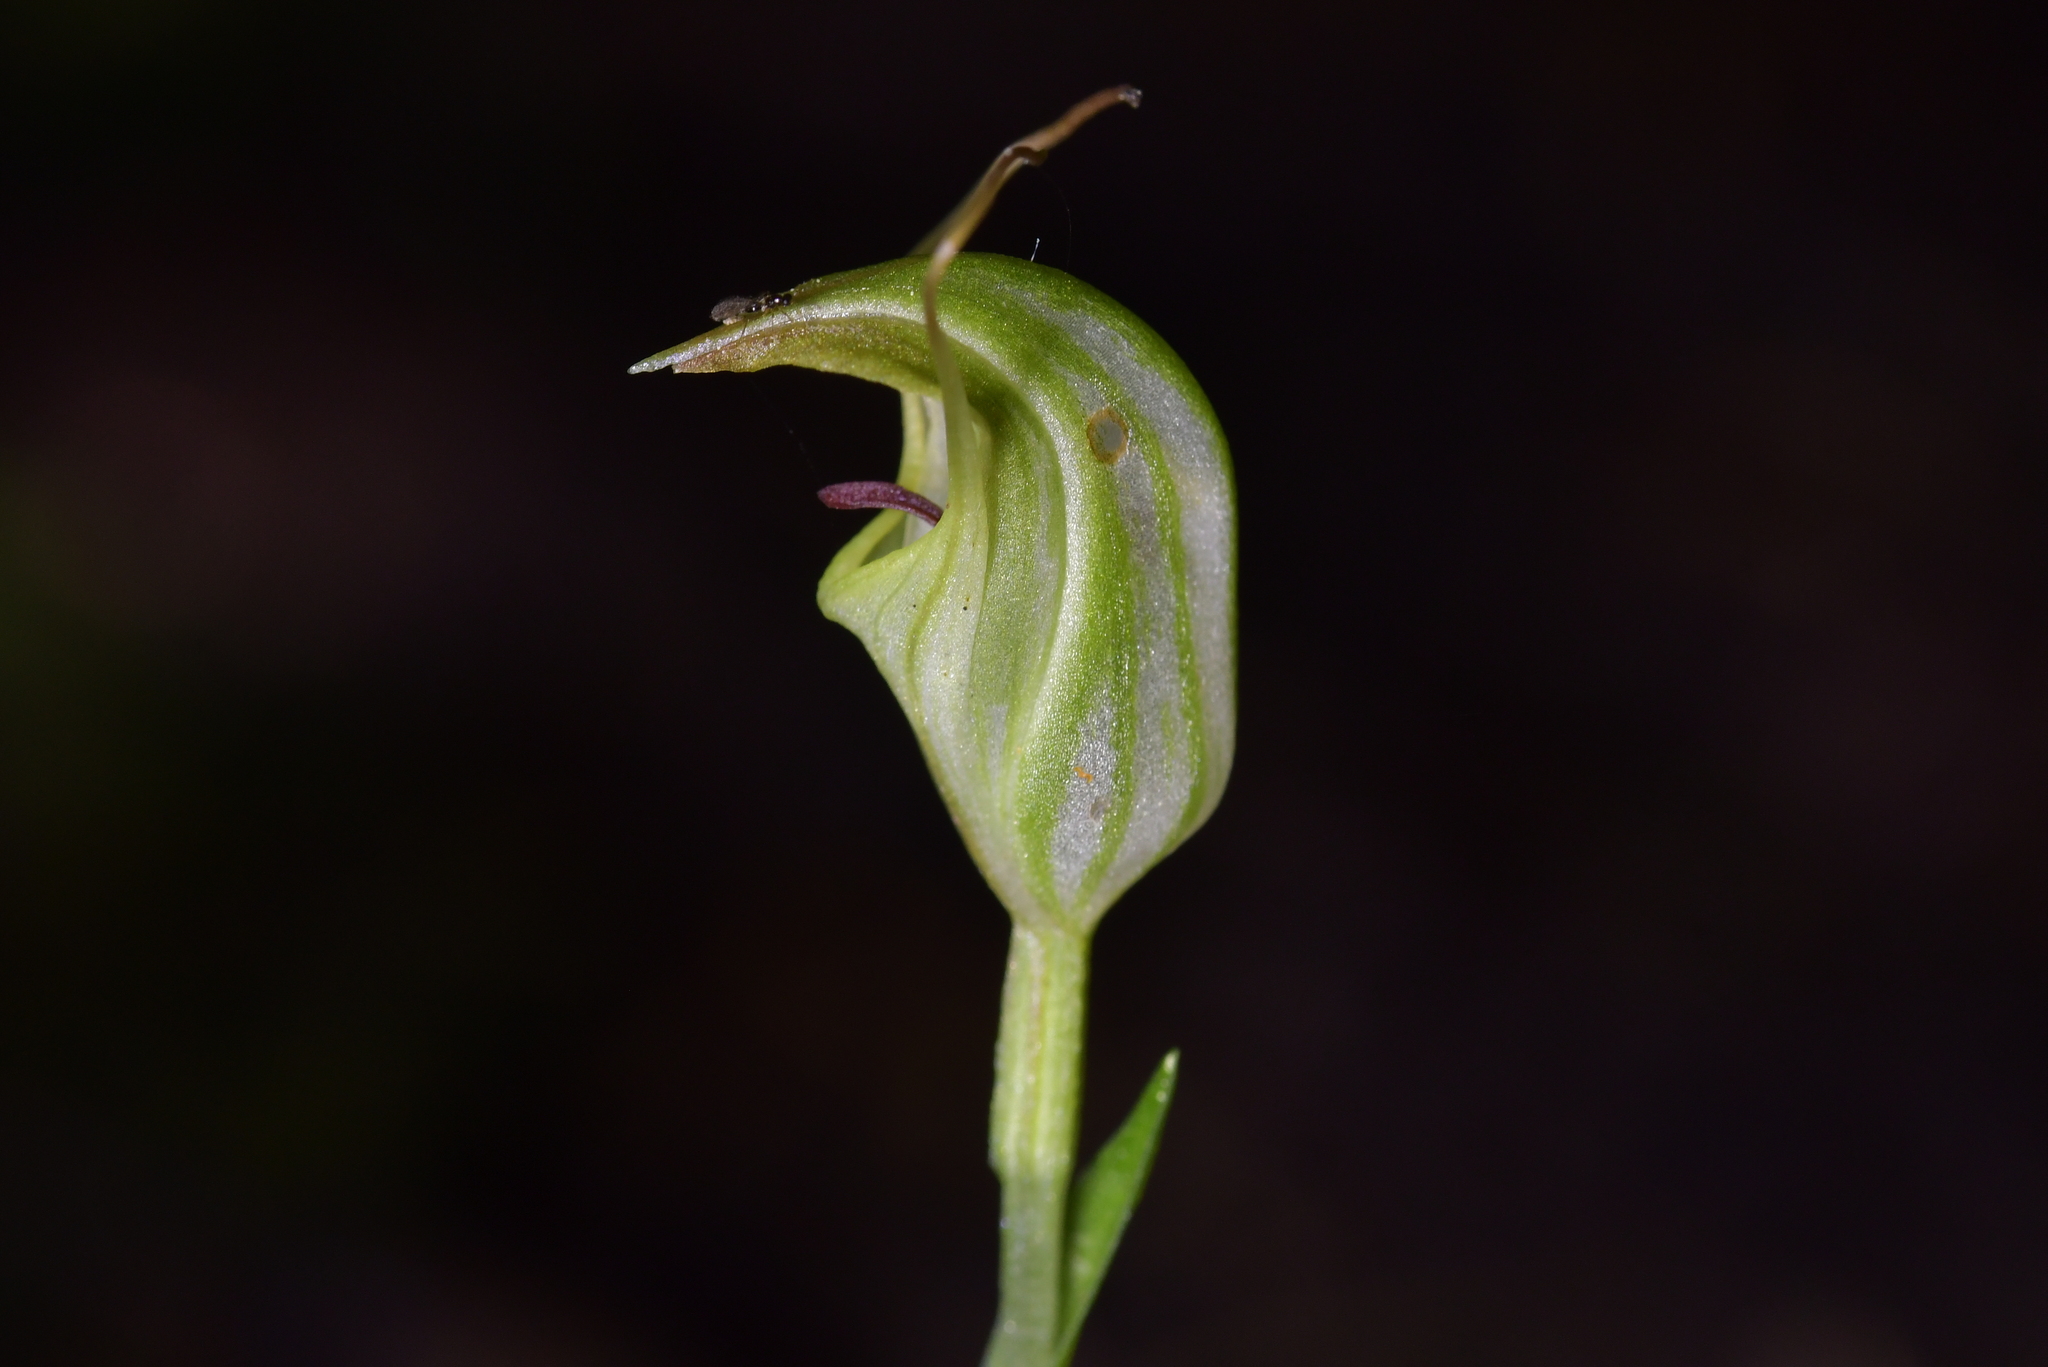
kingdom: Plantae
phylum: Tracheophyta
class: Liliopsida
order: Asparagales
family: Orchidaceae
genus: Pterostylis
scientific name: Pterostylis trullifolia
